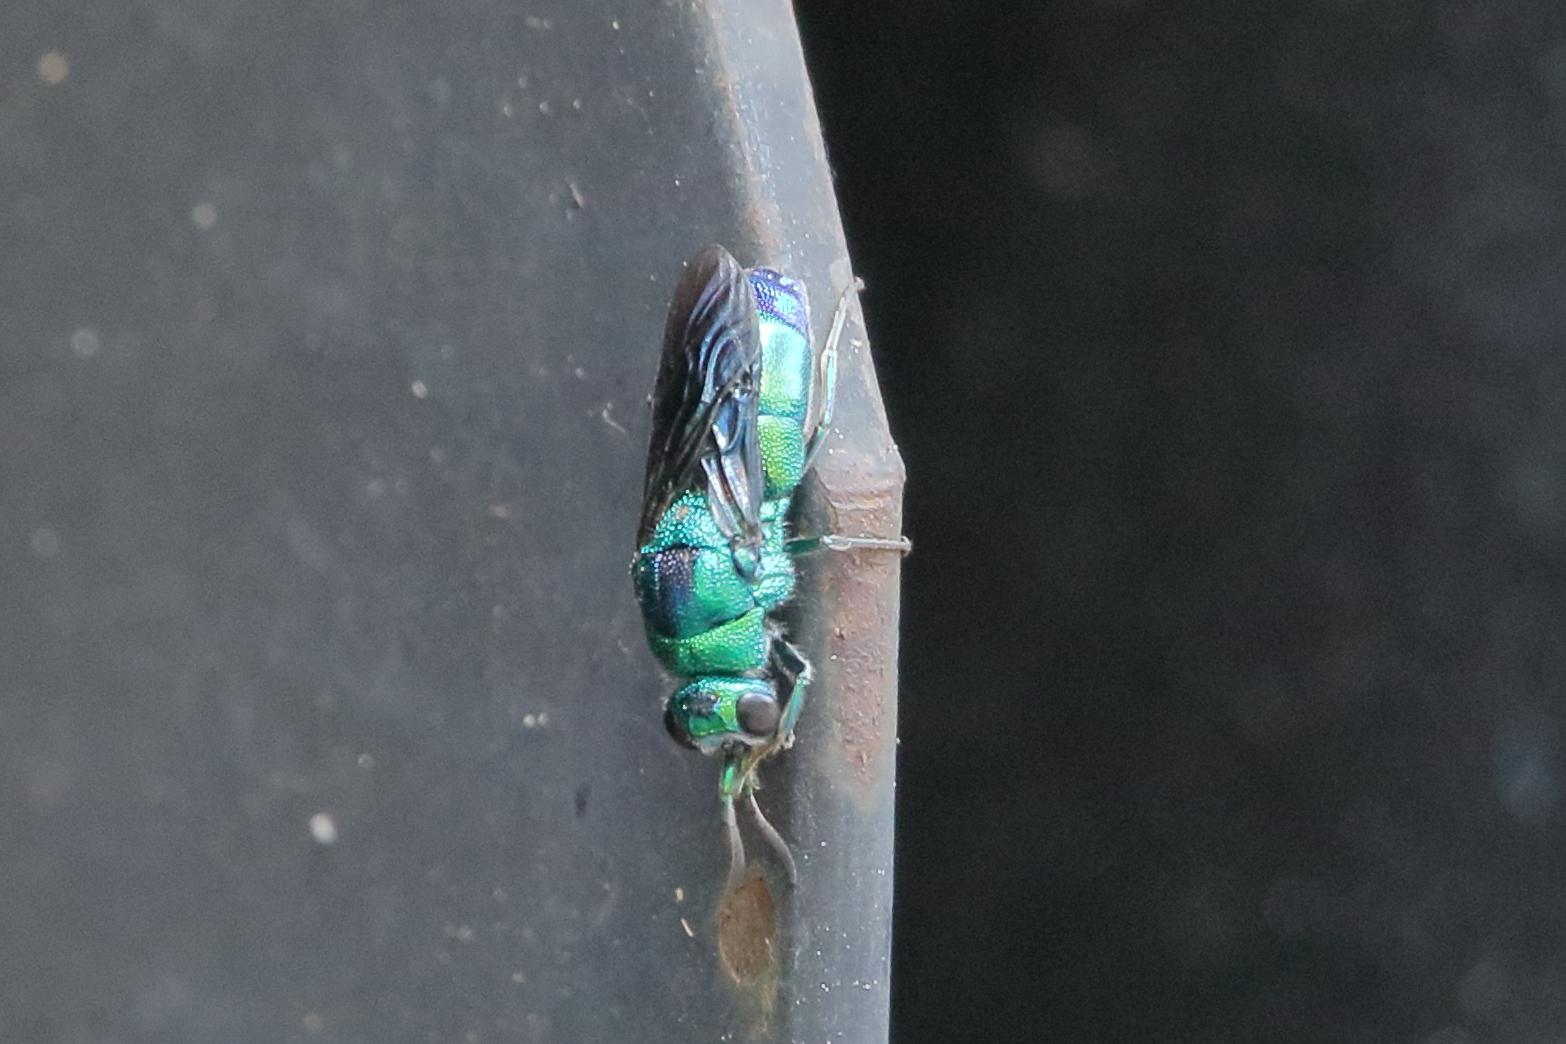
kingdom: Animalia
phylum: Arthropoda
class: Insecta
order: Hymenoptera
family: Chrysididae
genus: Chrysis
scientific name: Chrysis angolensis
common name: Cuckoo wasp
